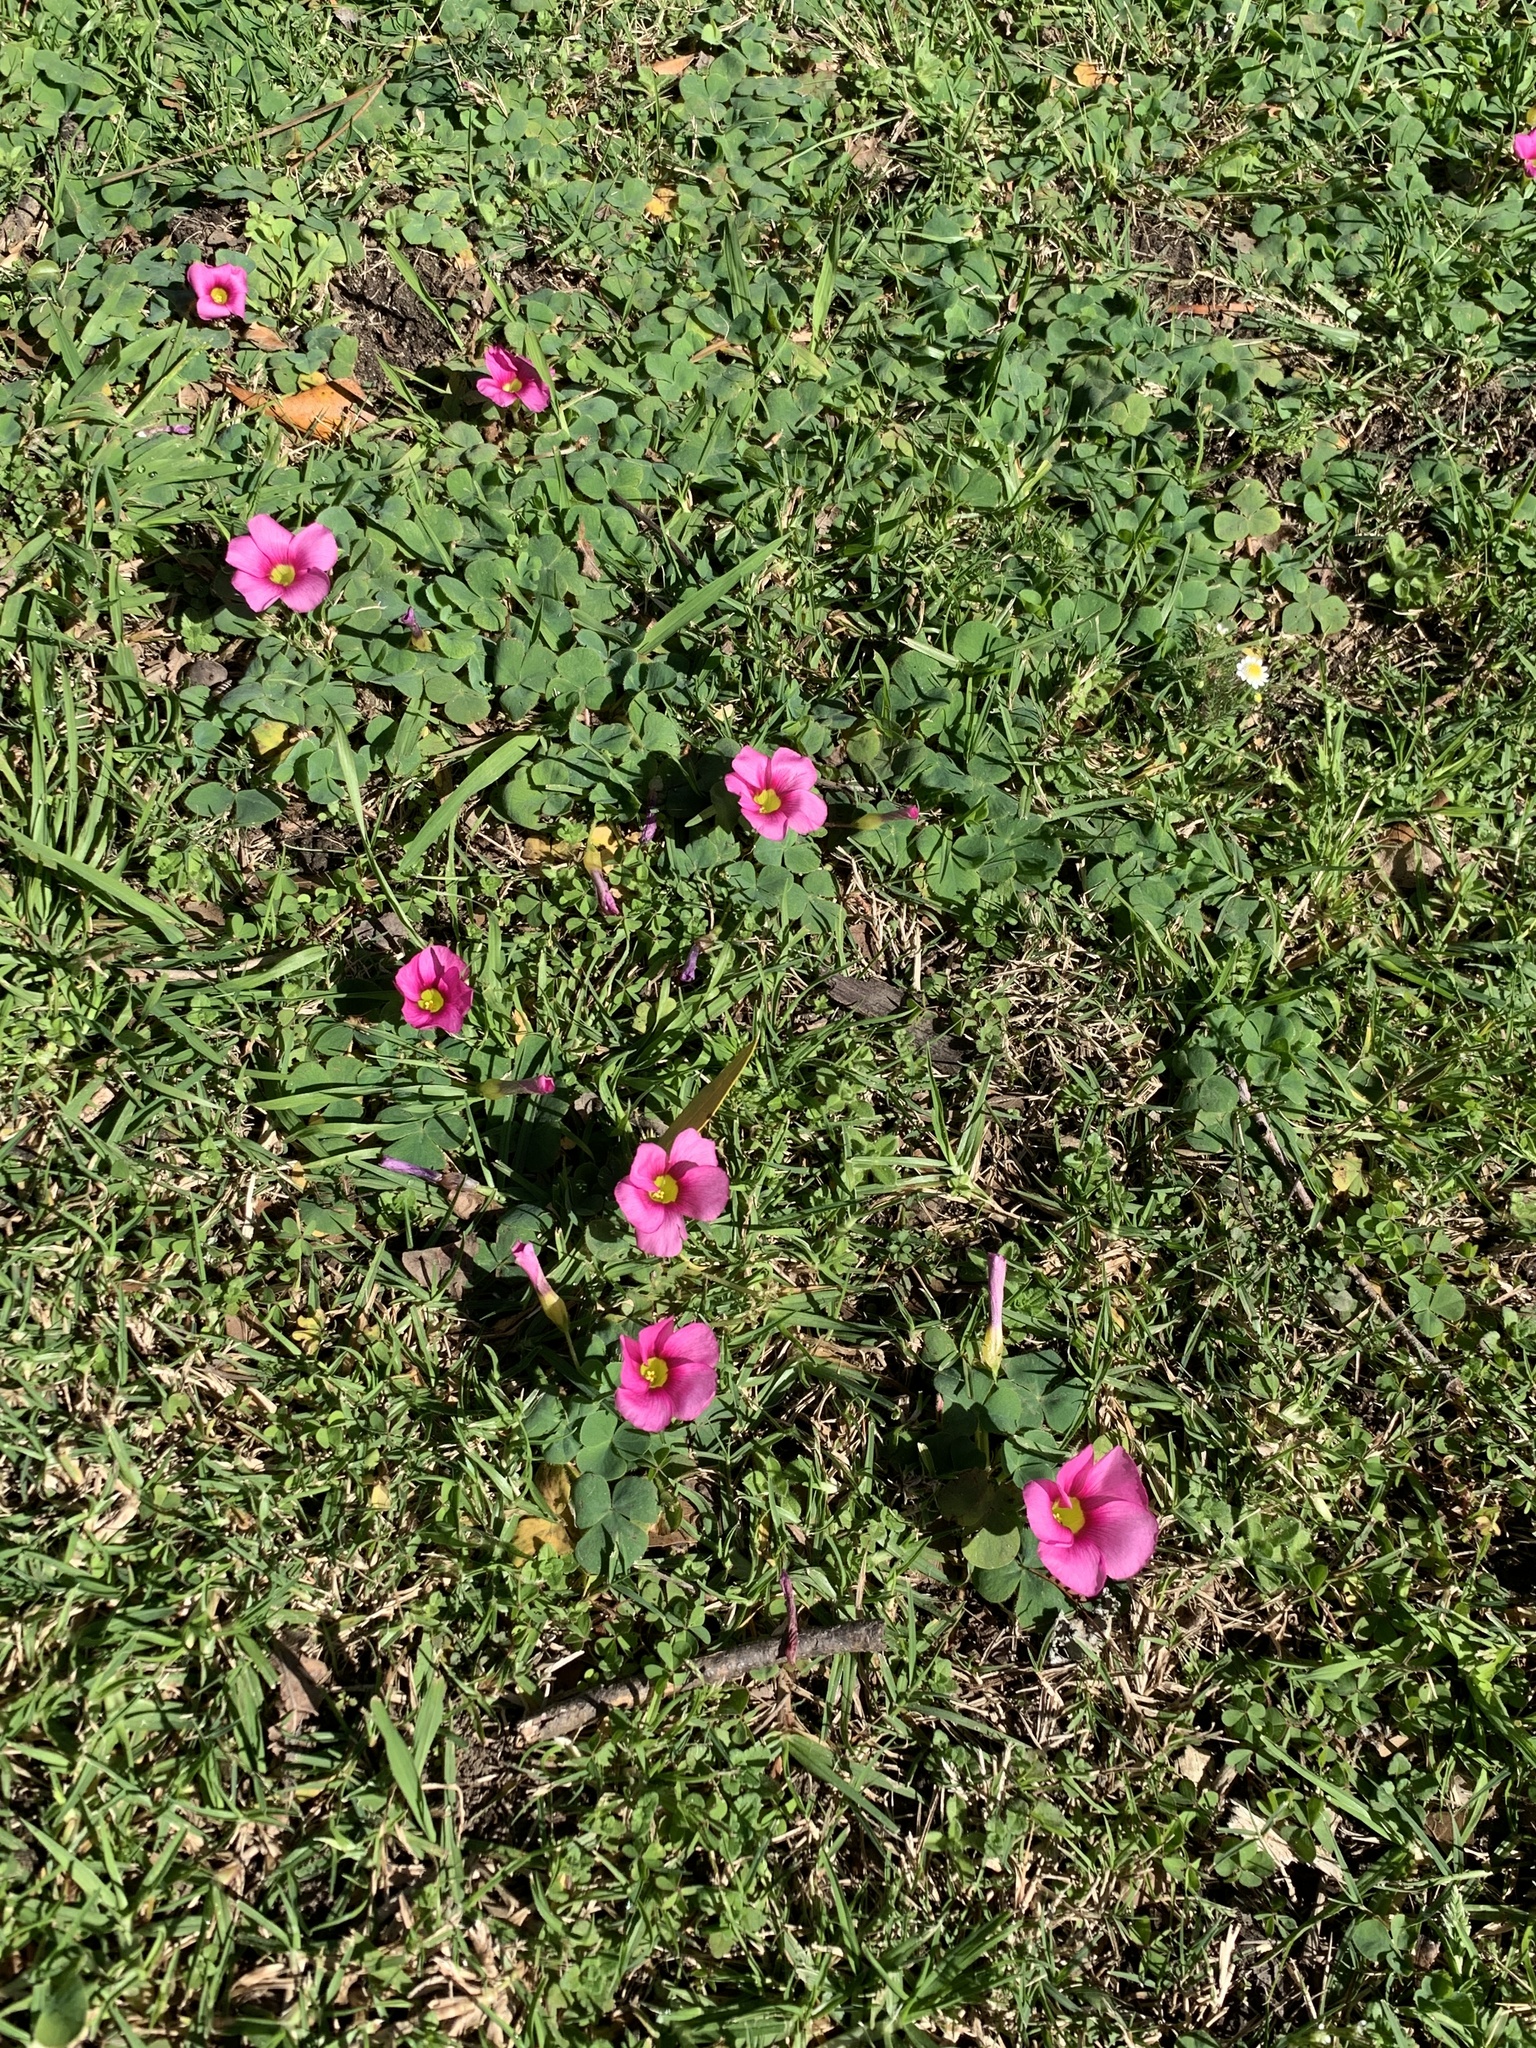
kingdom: Plantae
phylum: Tracheophyta
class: Magnoliopsida
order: Oxalidales
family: Oxalidaceae
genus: Oxalis
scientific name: Oxalis purpurea
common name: Purple woodsorrel
